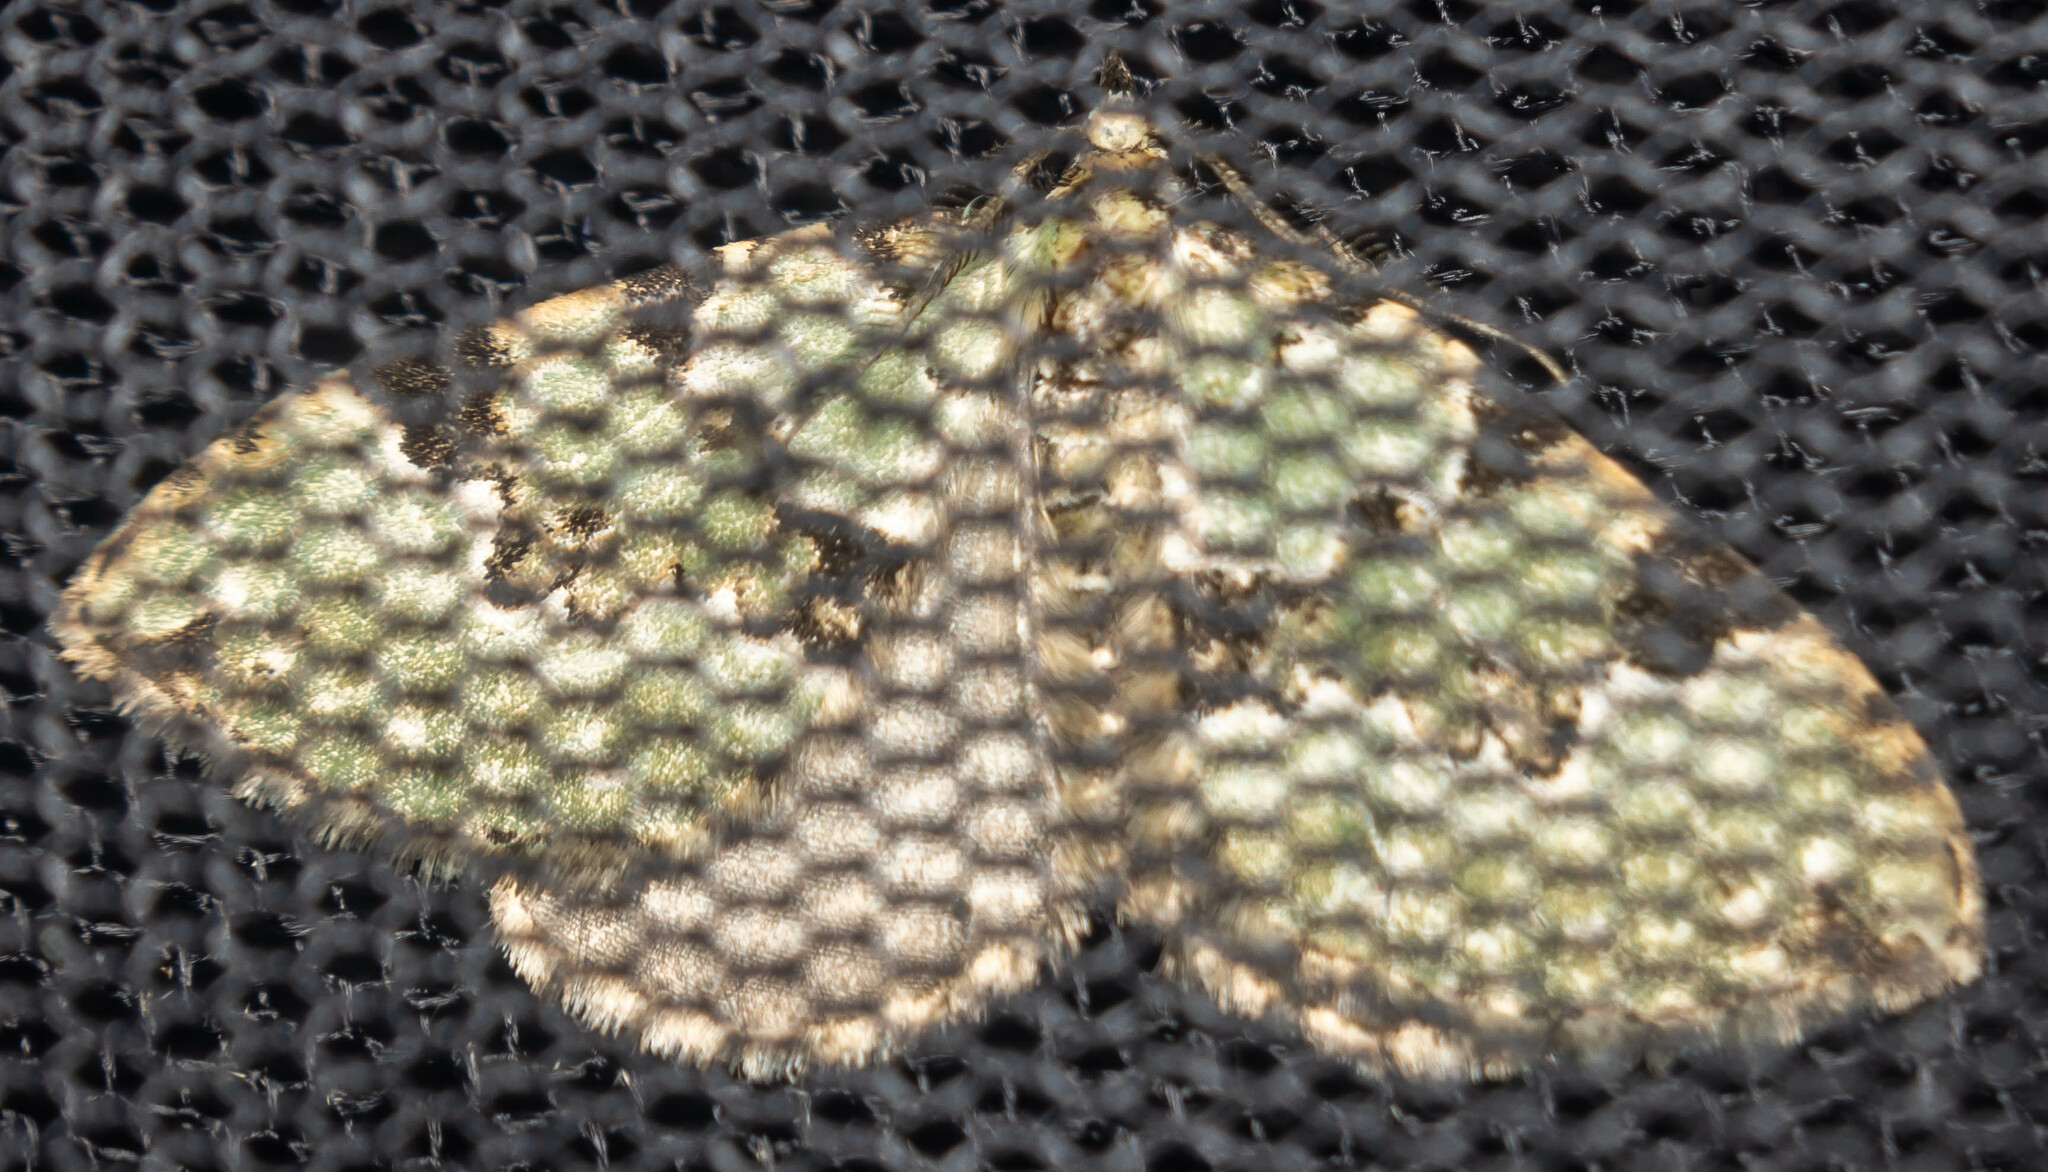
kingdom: Animalia
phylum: Arthropoda
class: Insecta
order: Lepidoptera
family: Geometridae
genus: Colostygia
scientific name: Colostygia pectinataria
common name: Green carpet
